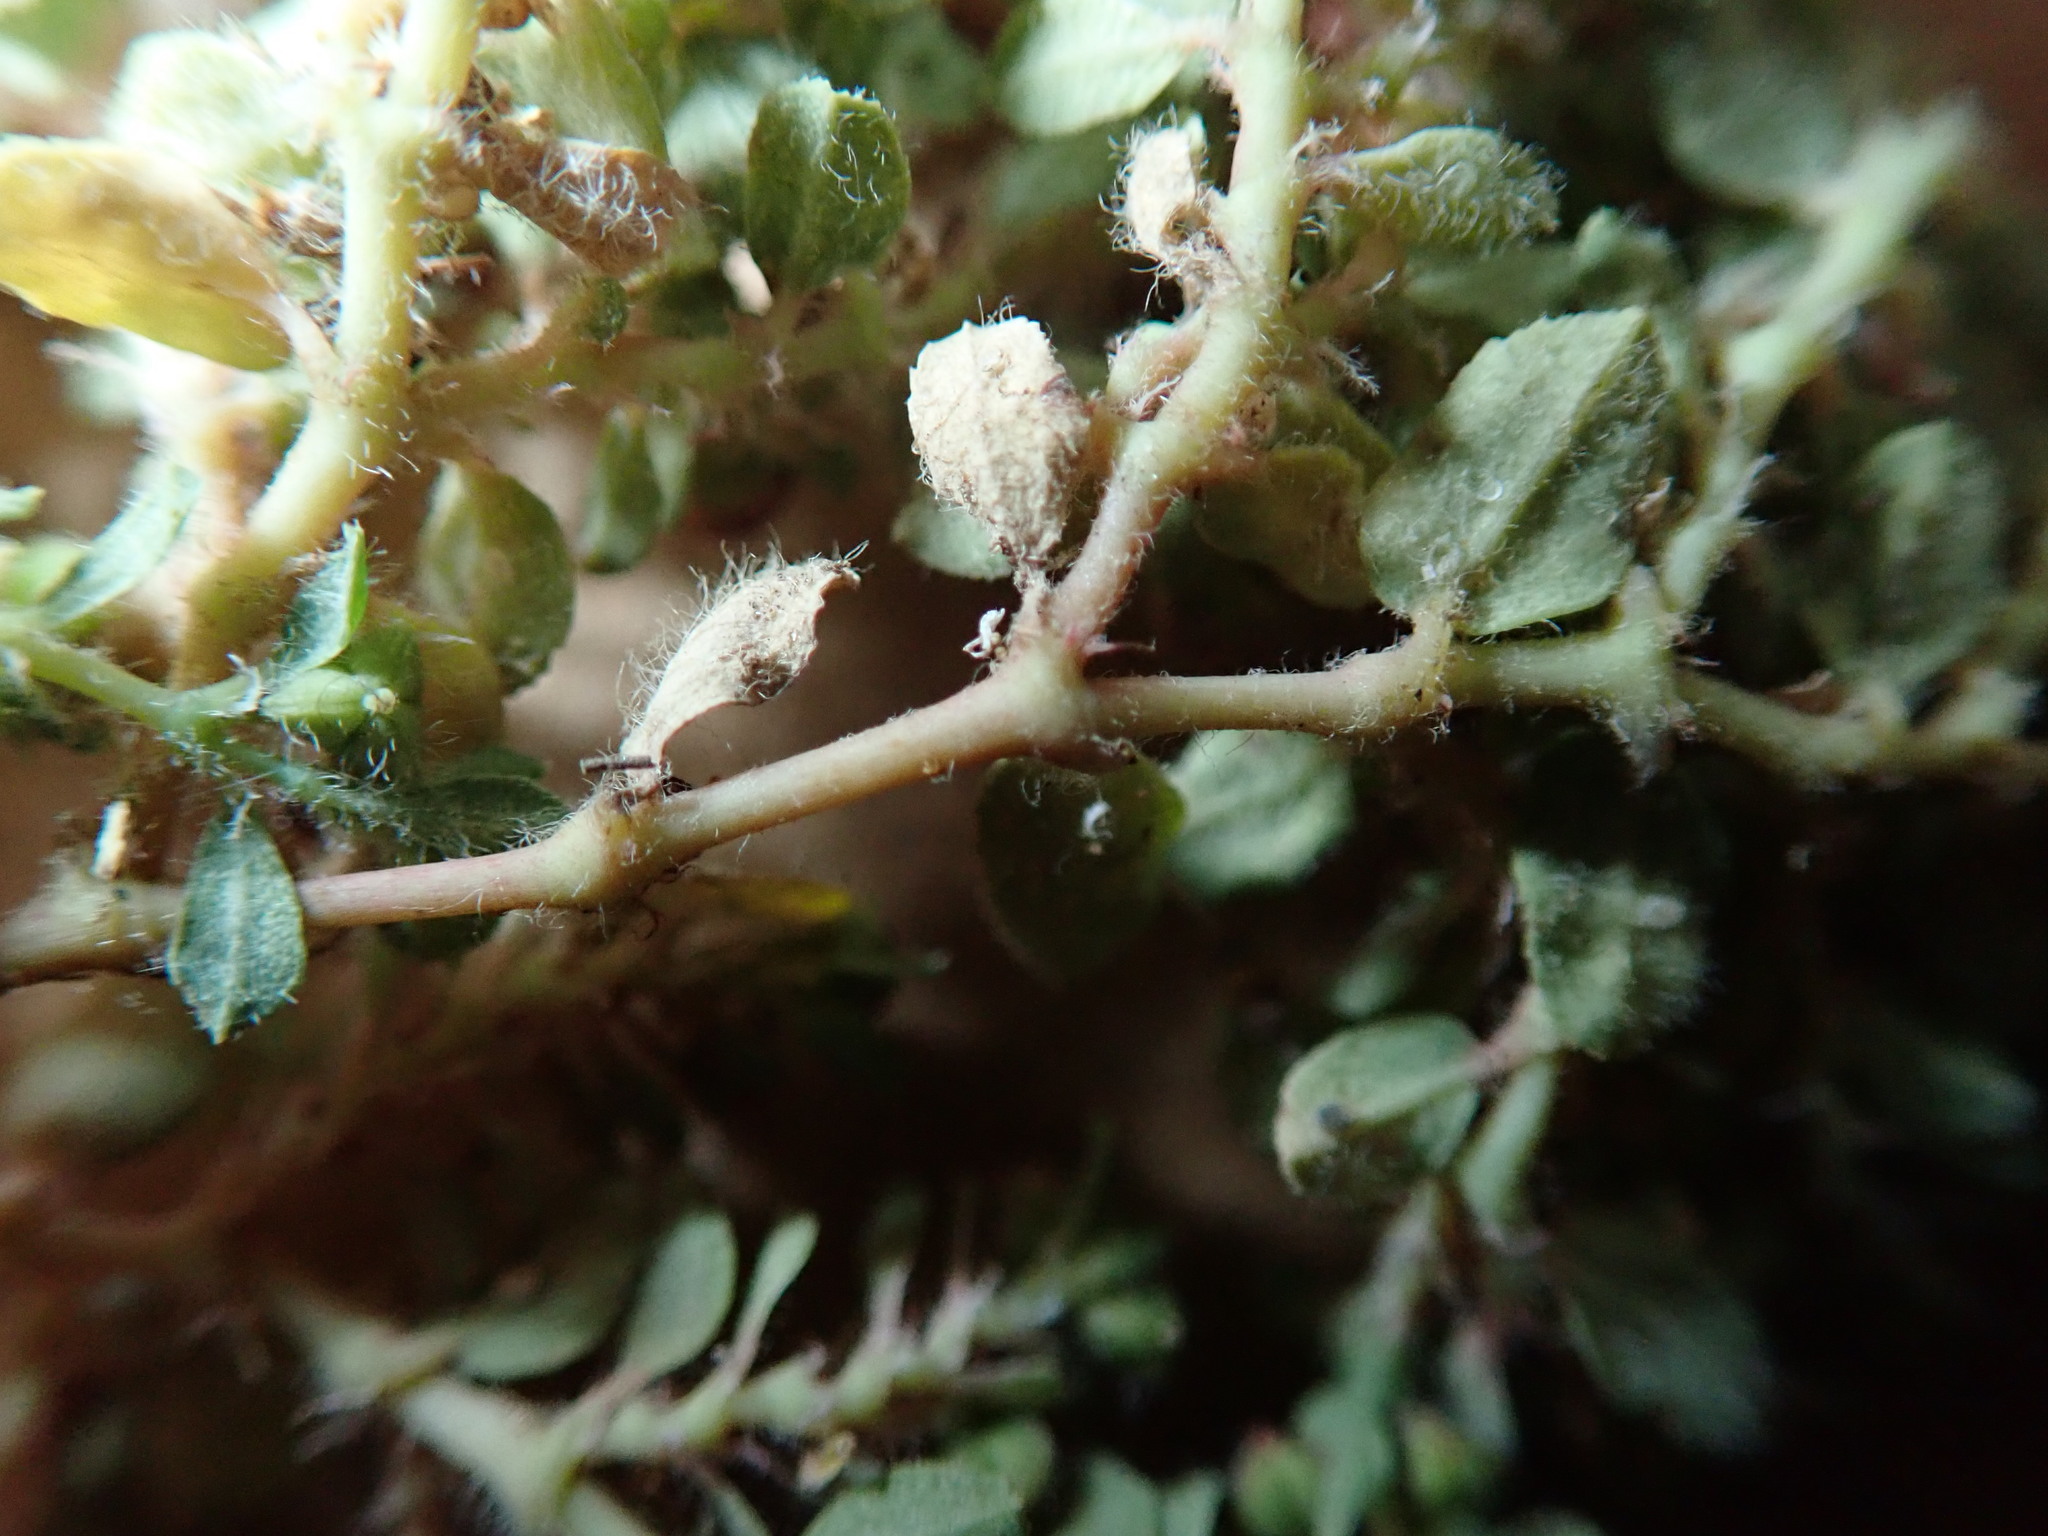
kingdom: Plantae
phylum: Tracheophyta
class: Magnoliopsida
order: Malpighiales
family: Euphorbiaceae
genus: Euphorbia
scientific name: Euphorbia serpillifolia
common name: Thyme-leaf spurge
